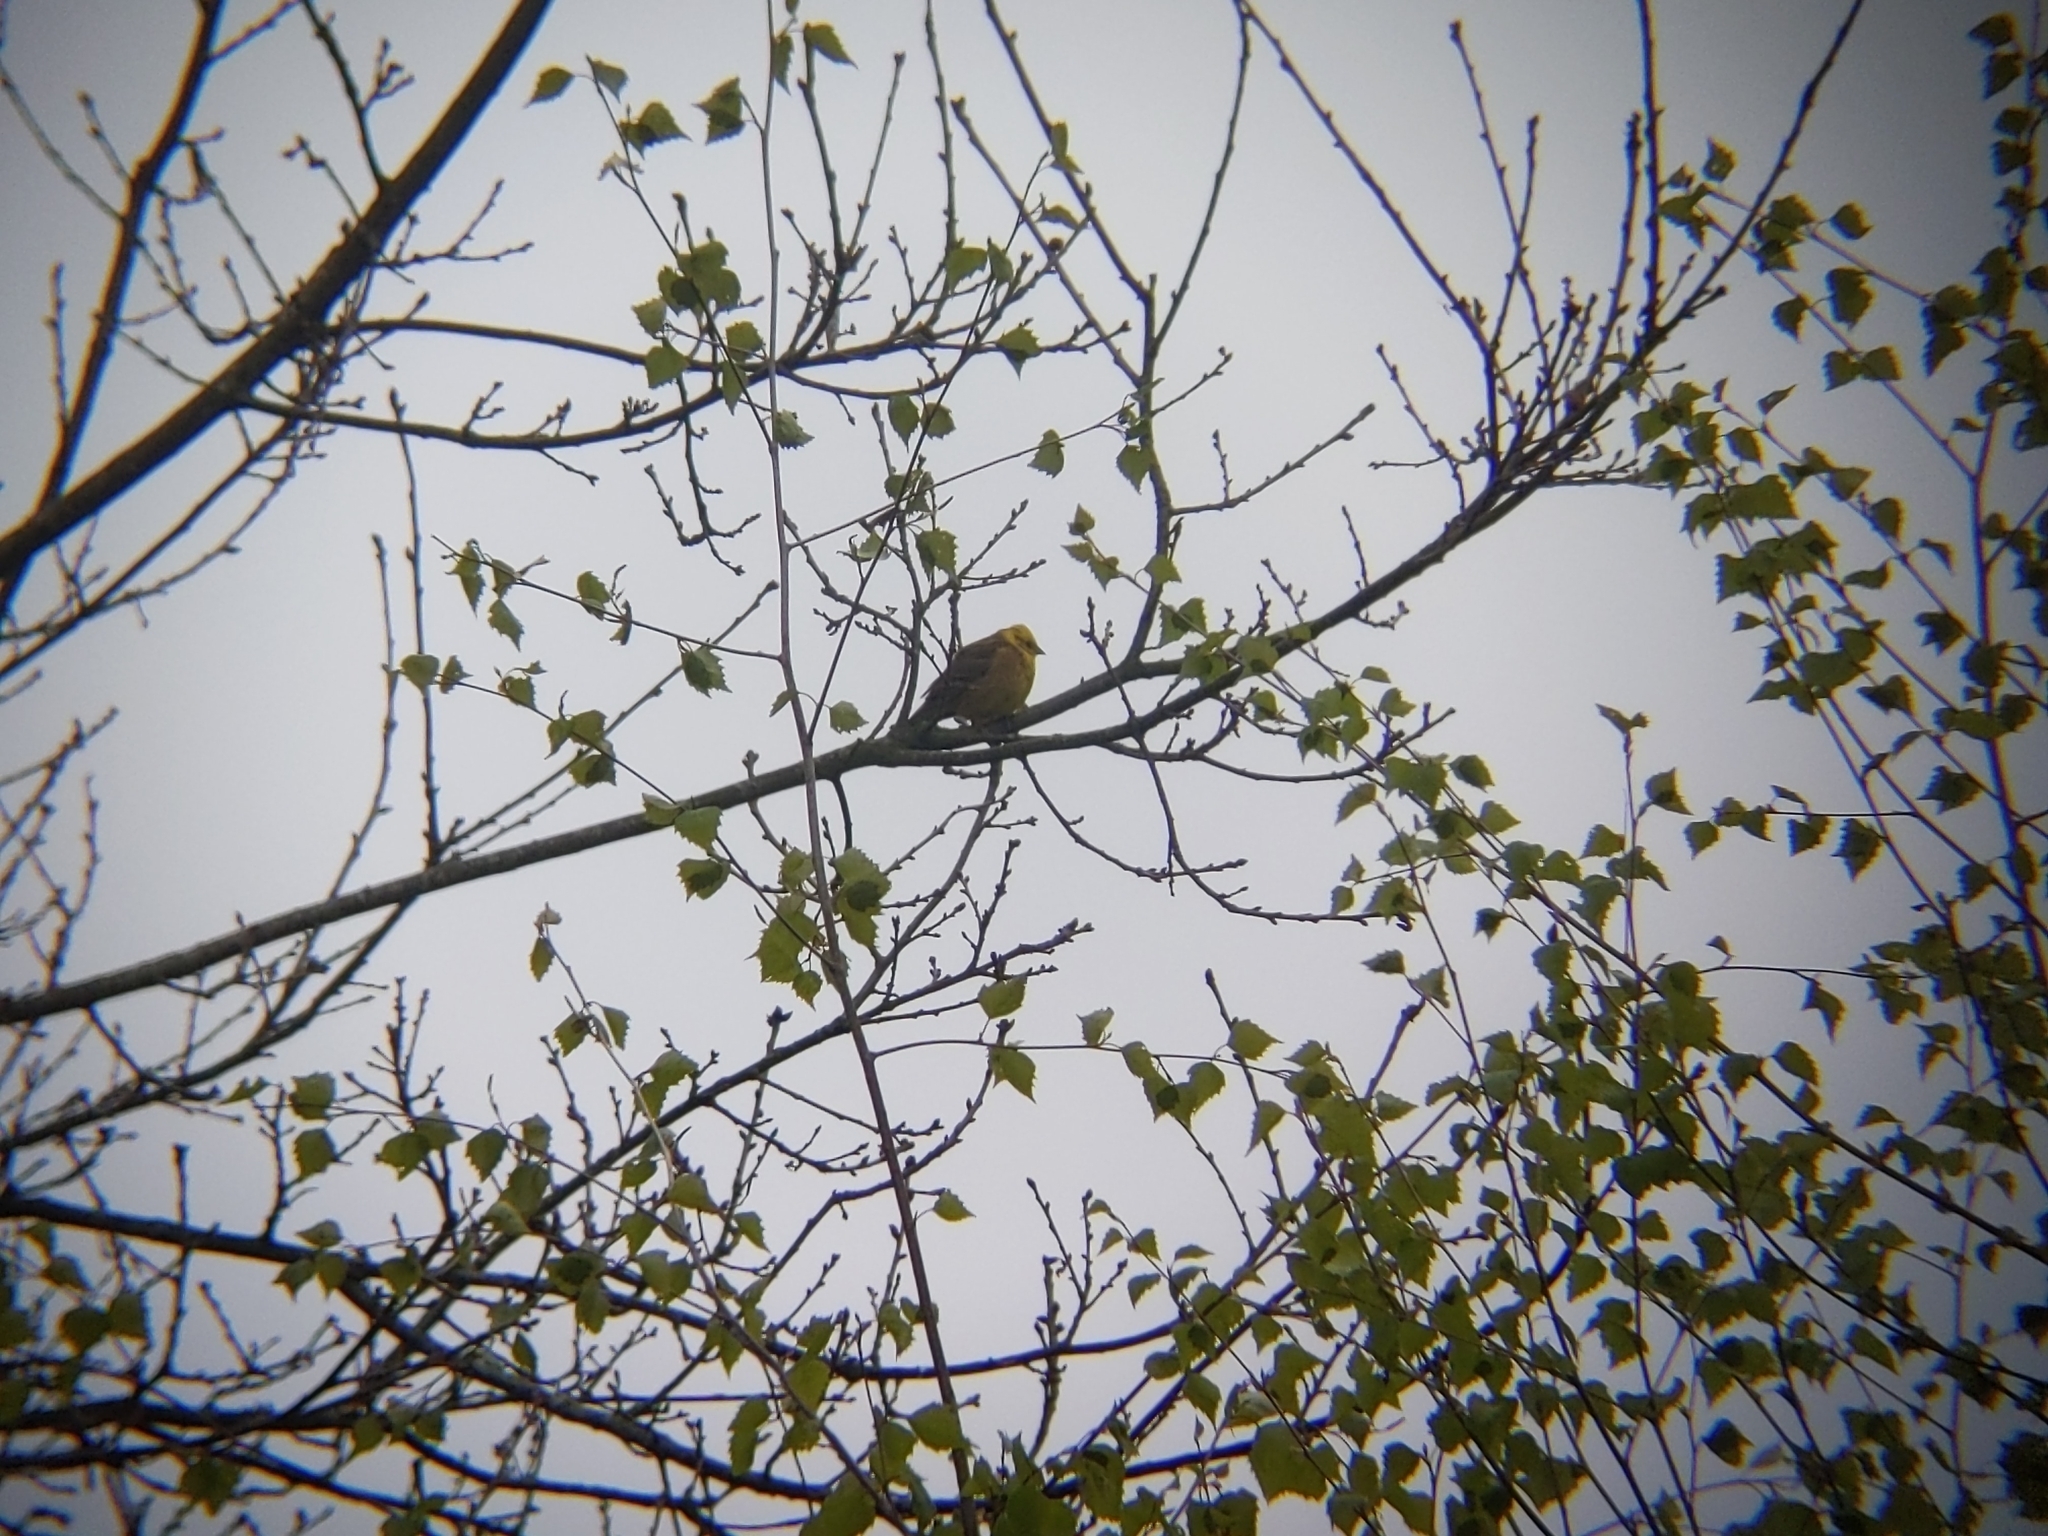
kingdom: Animalia
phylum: Chordata
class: Aves
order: Passeriformes
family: Emberizidae
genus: Emberiza
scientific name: Emberiza citrinella
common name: Yellowhammer
